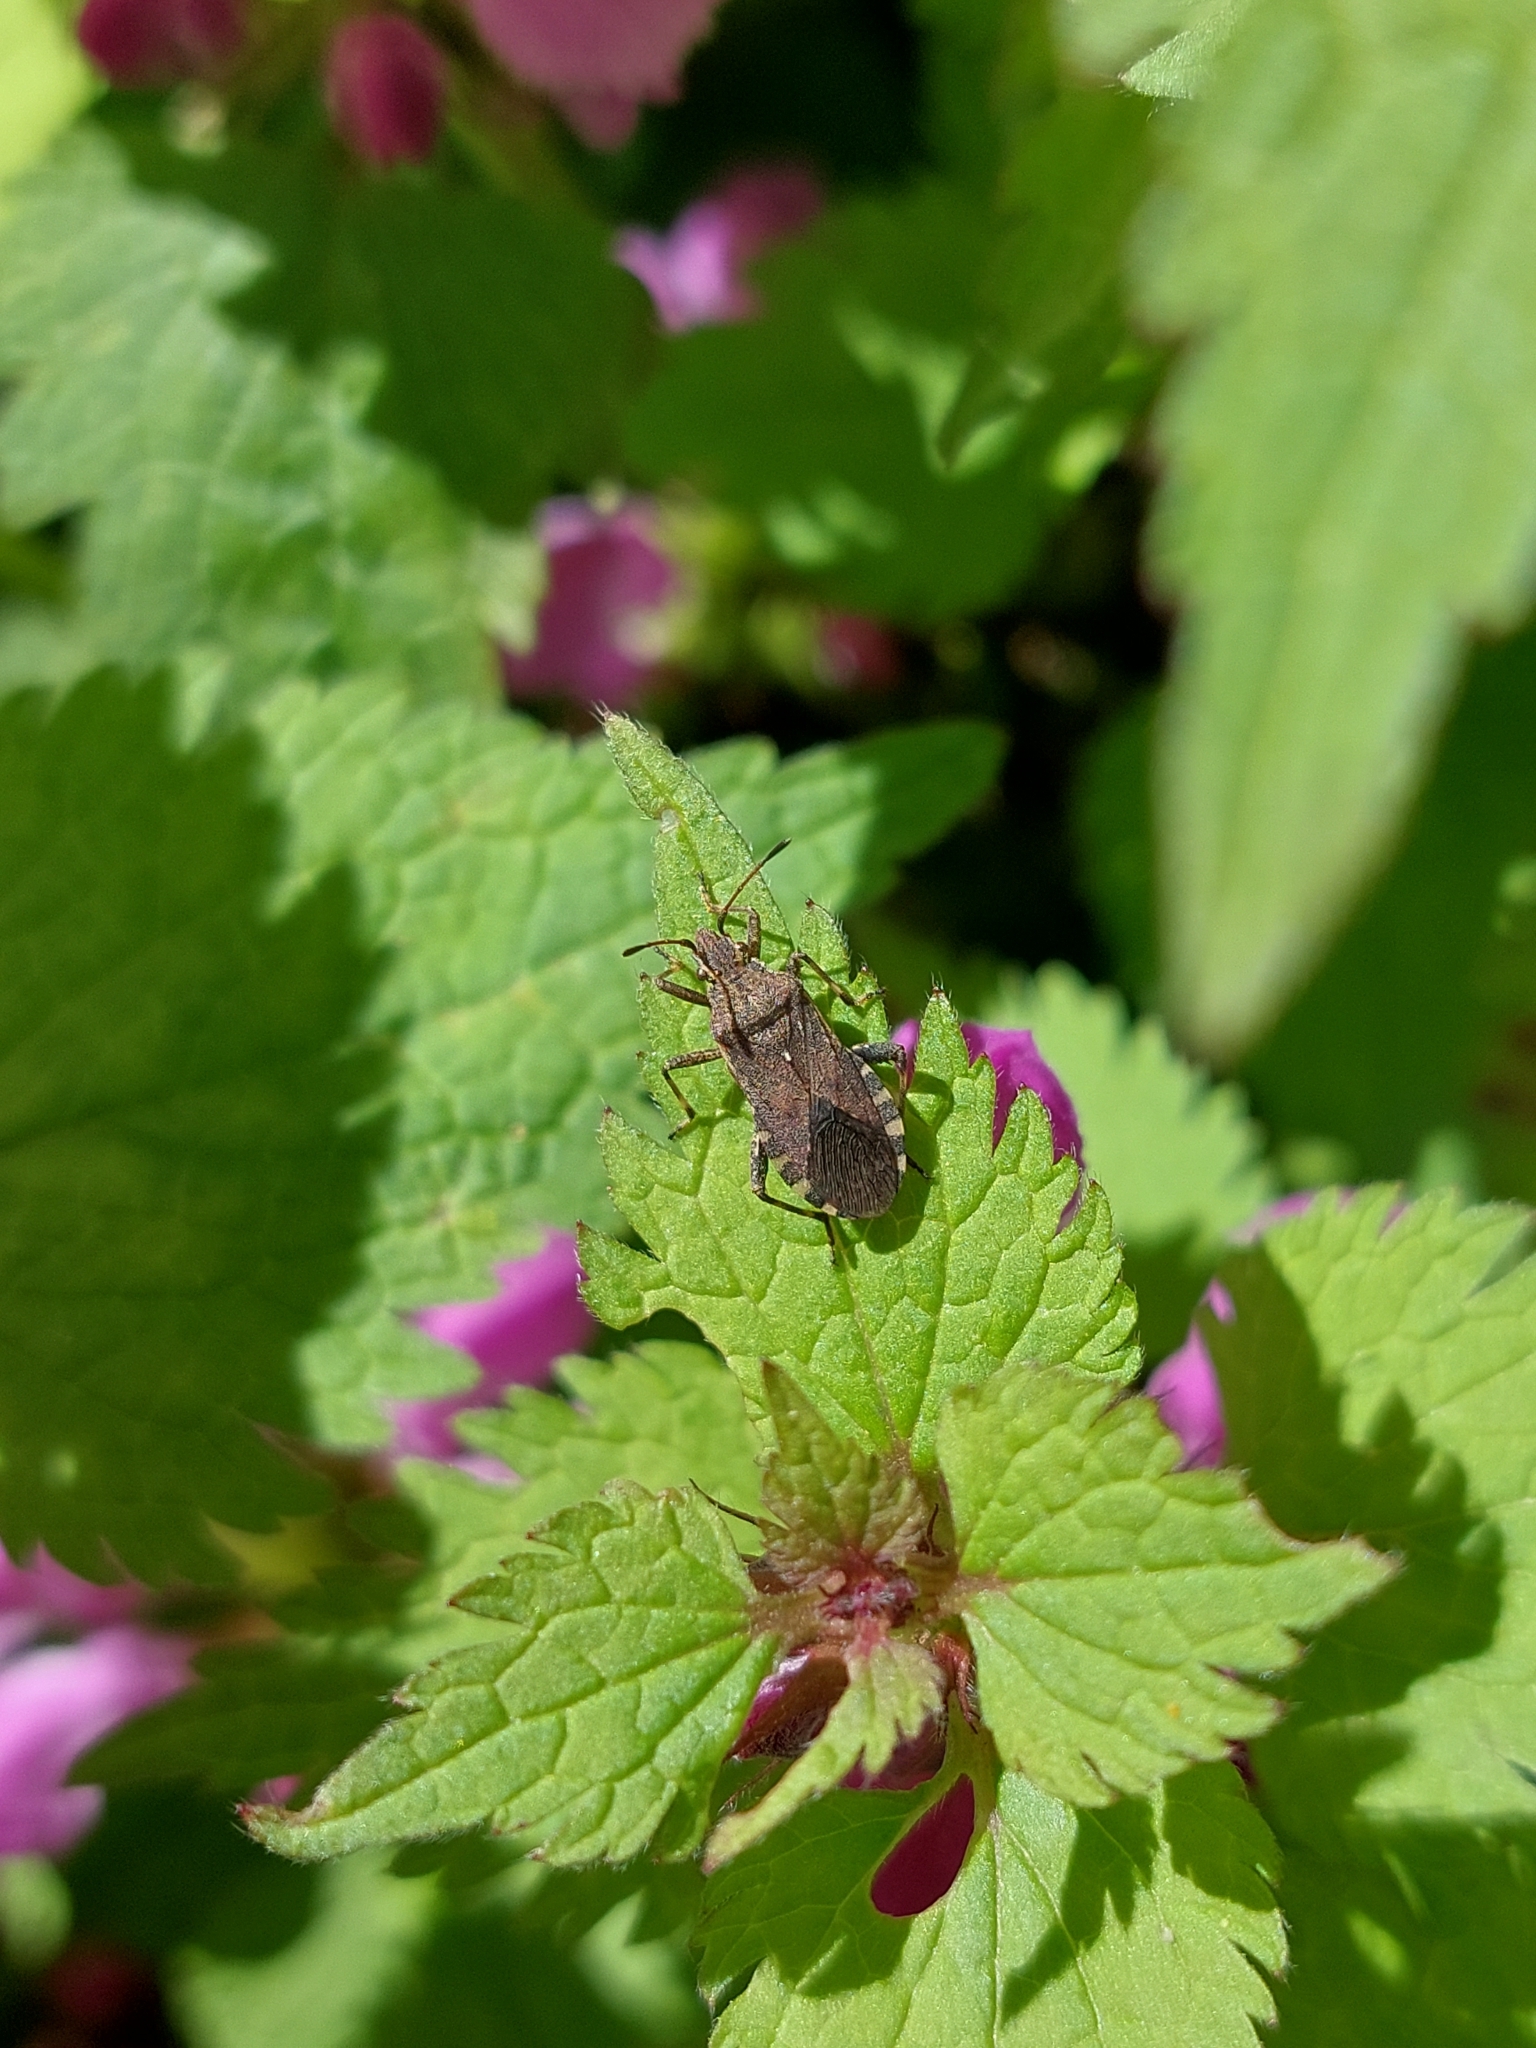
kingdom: Animalia
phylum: Arthropoda
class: Insecta
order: Hemiptera
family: Coreidae
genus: Ceraleptus
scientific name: Ceraleptus gracilicornis
